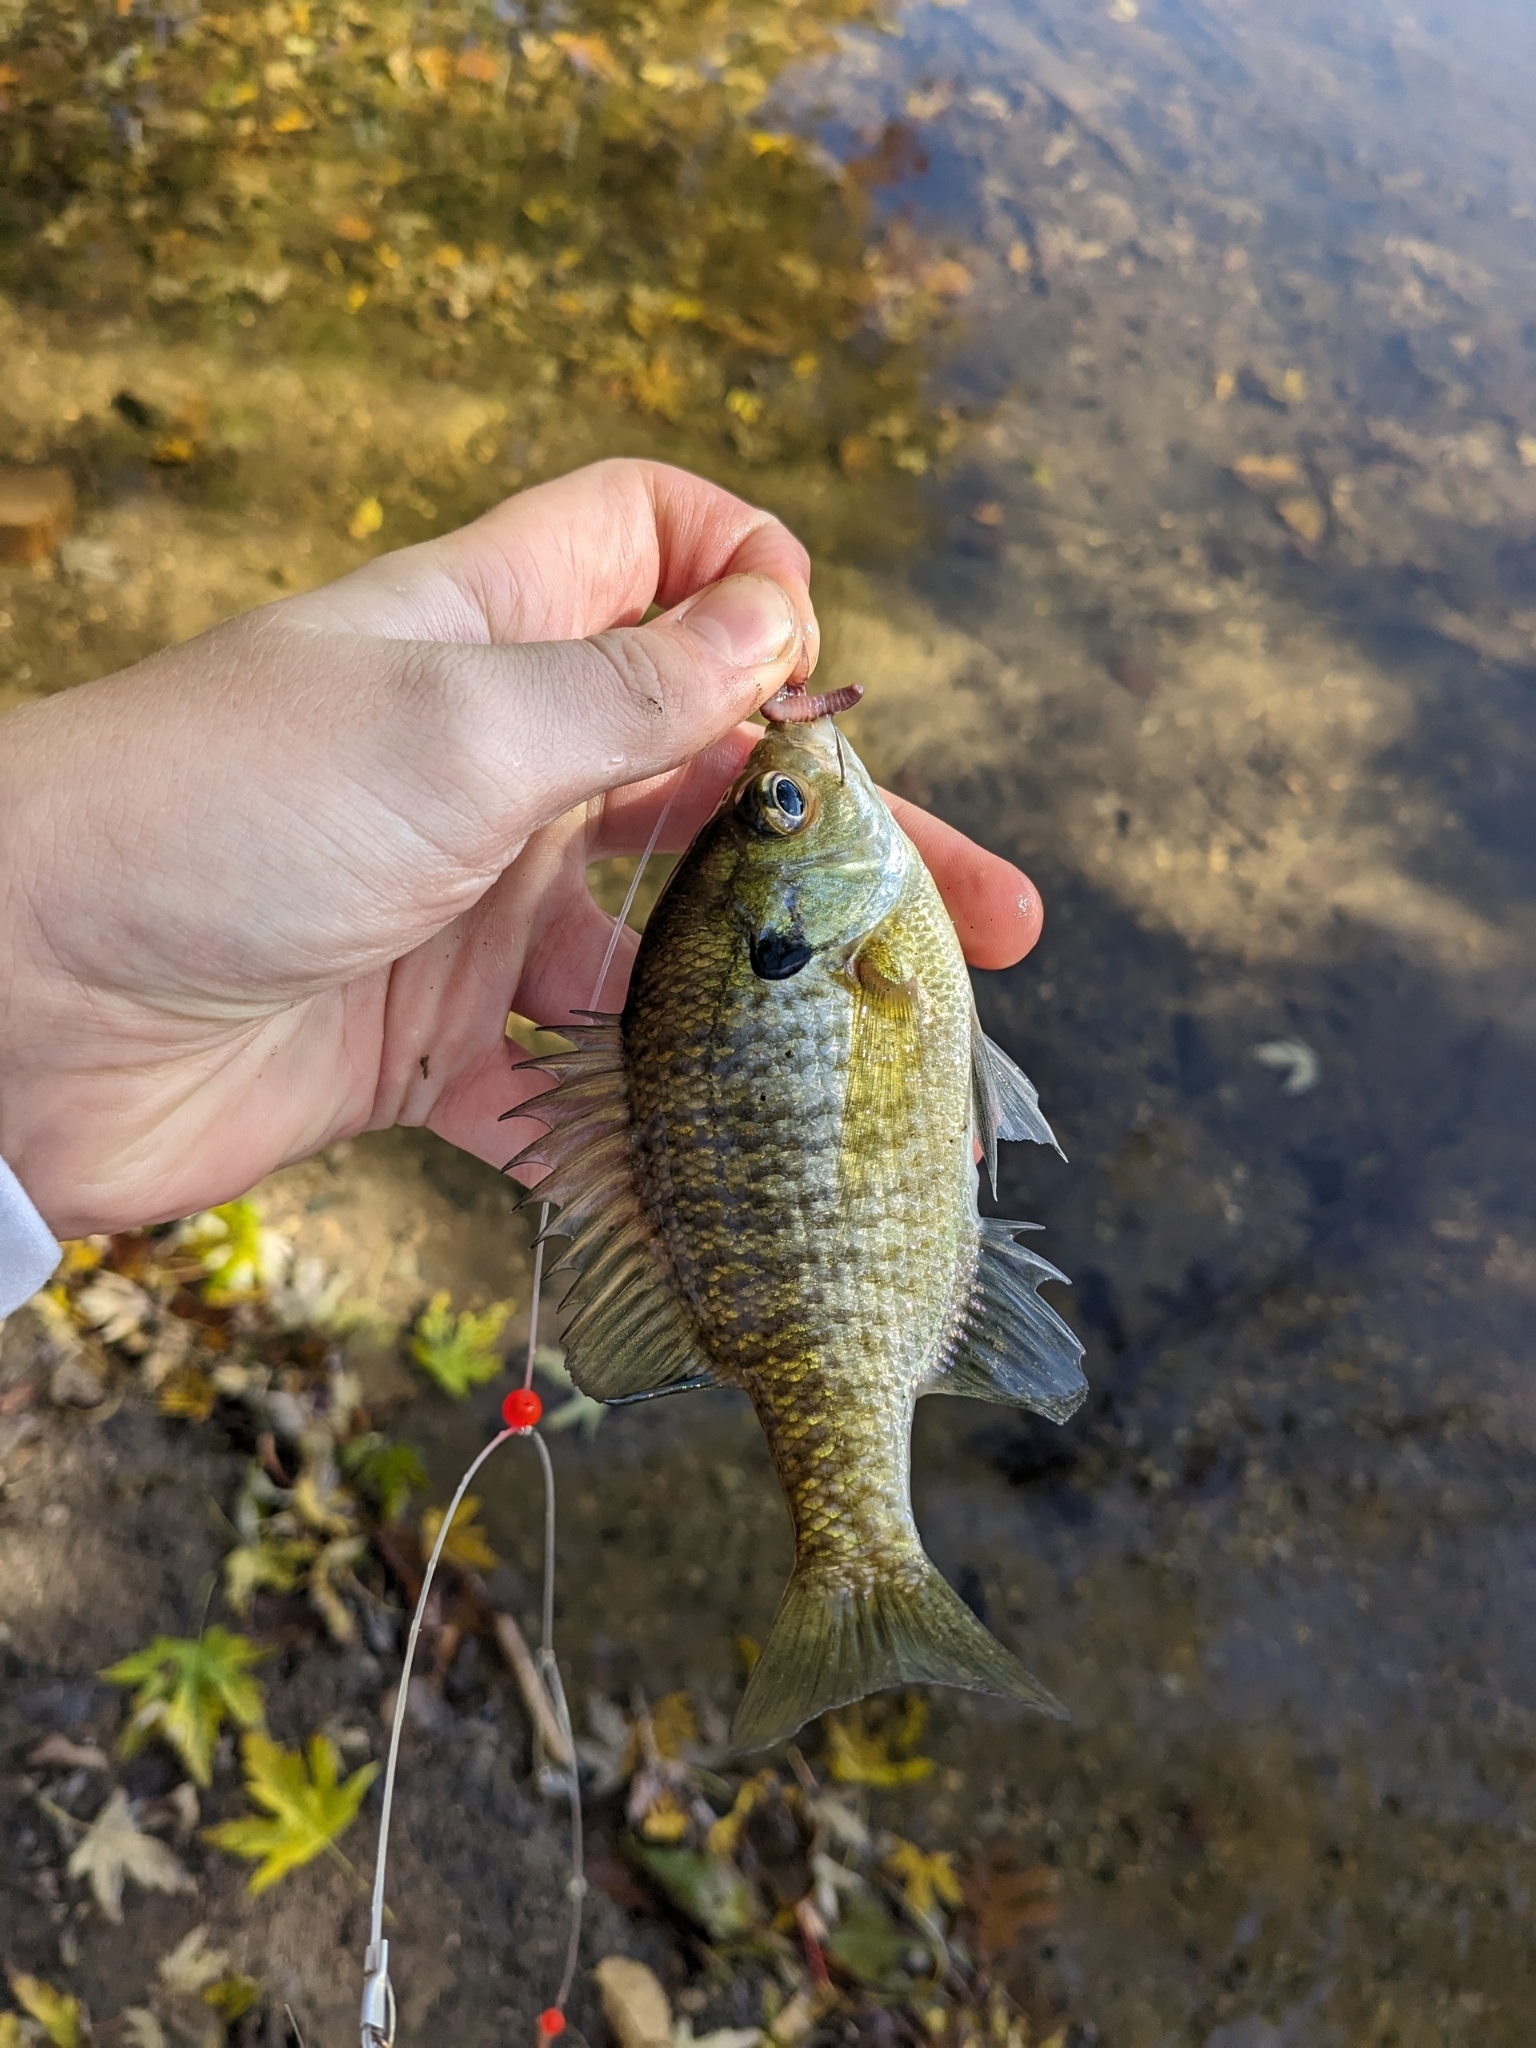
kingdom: Animalia
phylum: Chordata
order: Perciformes
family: Centrarchidae
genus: Lepomis
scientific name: Lepomis macrochirus
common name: Bluegill
